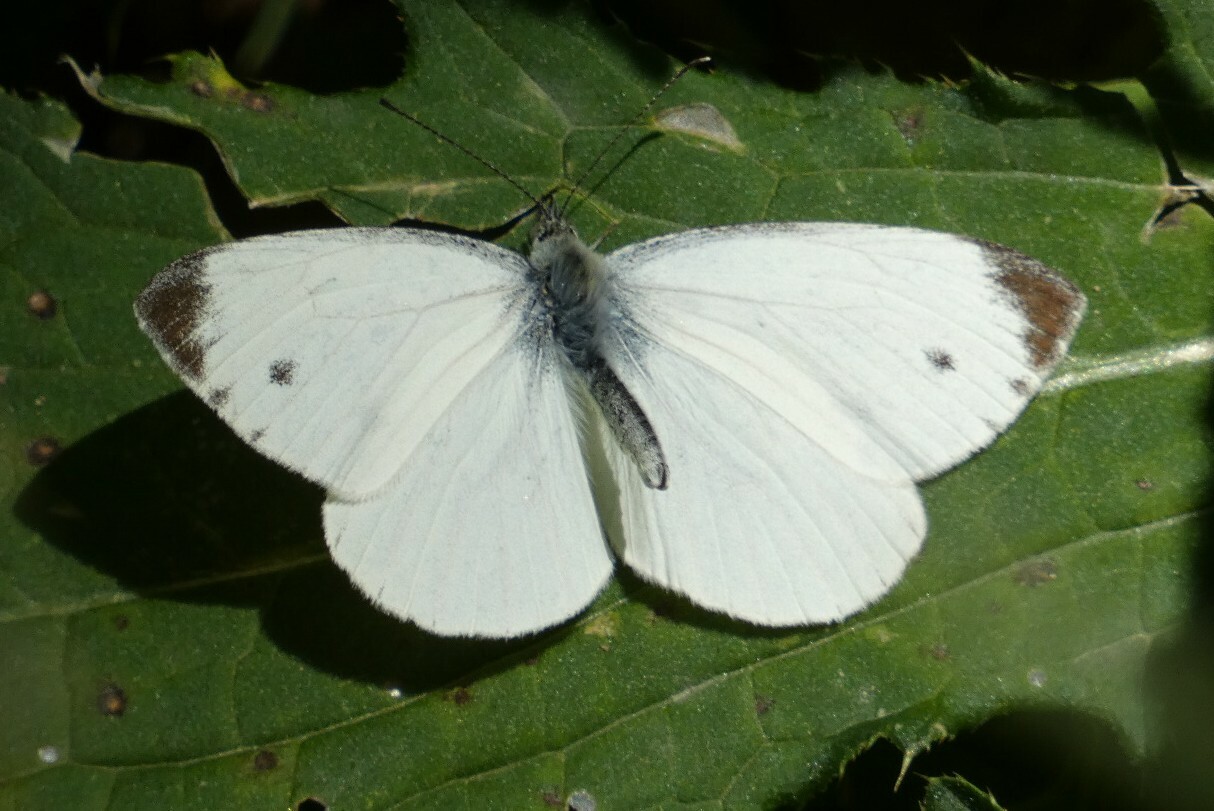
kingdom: Animalia
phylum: Arthropoda
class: Insecta
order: Lepidoptera
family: Pieridae
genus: Pieris
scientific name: Pieris napi
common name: Green-veined white
